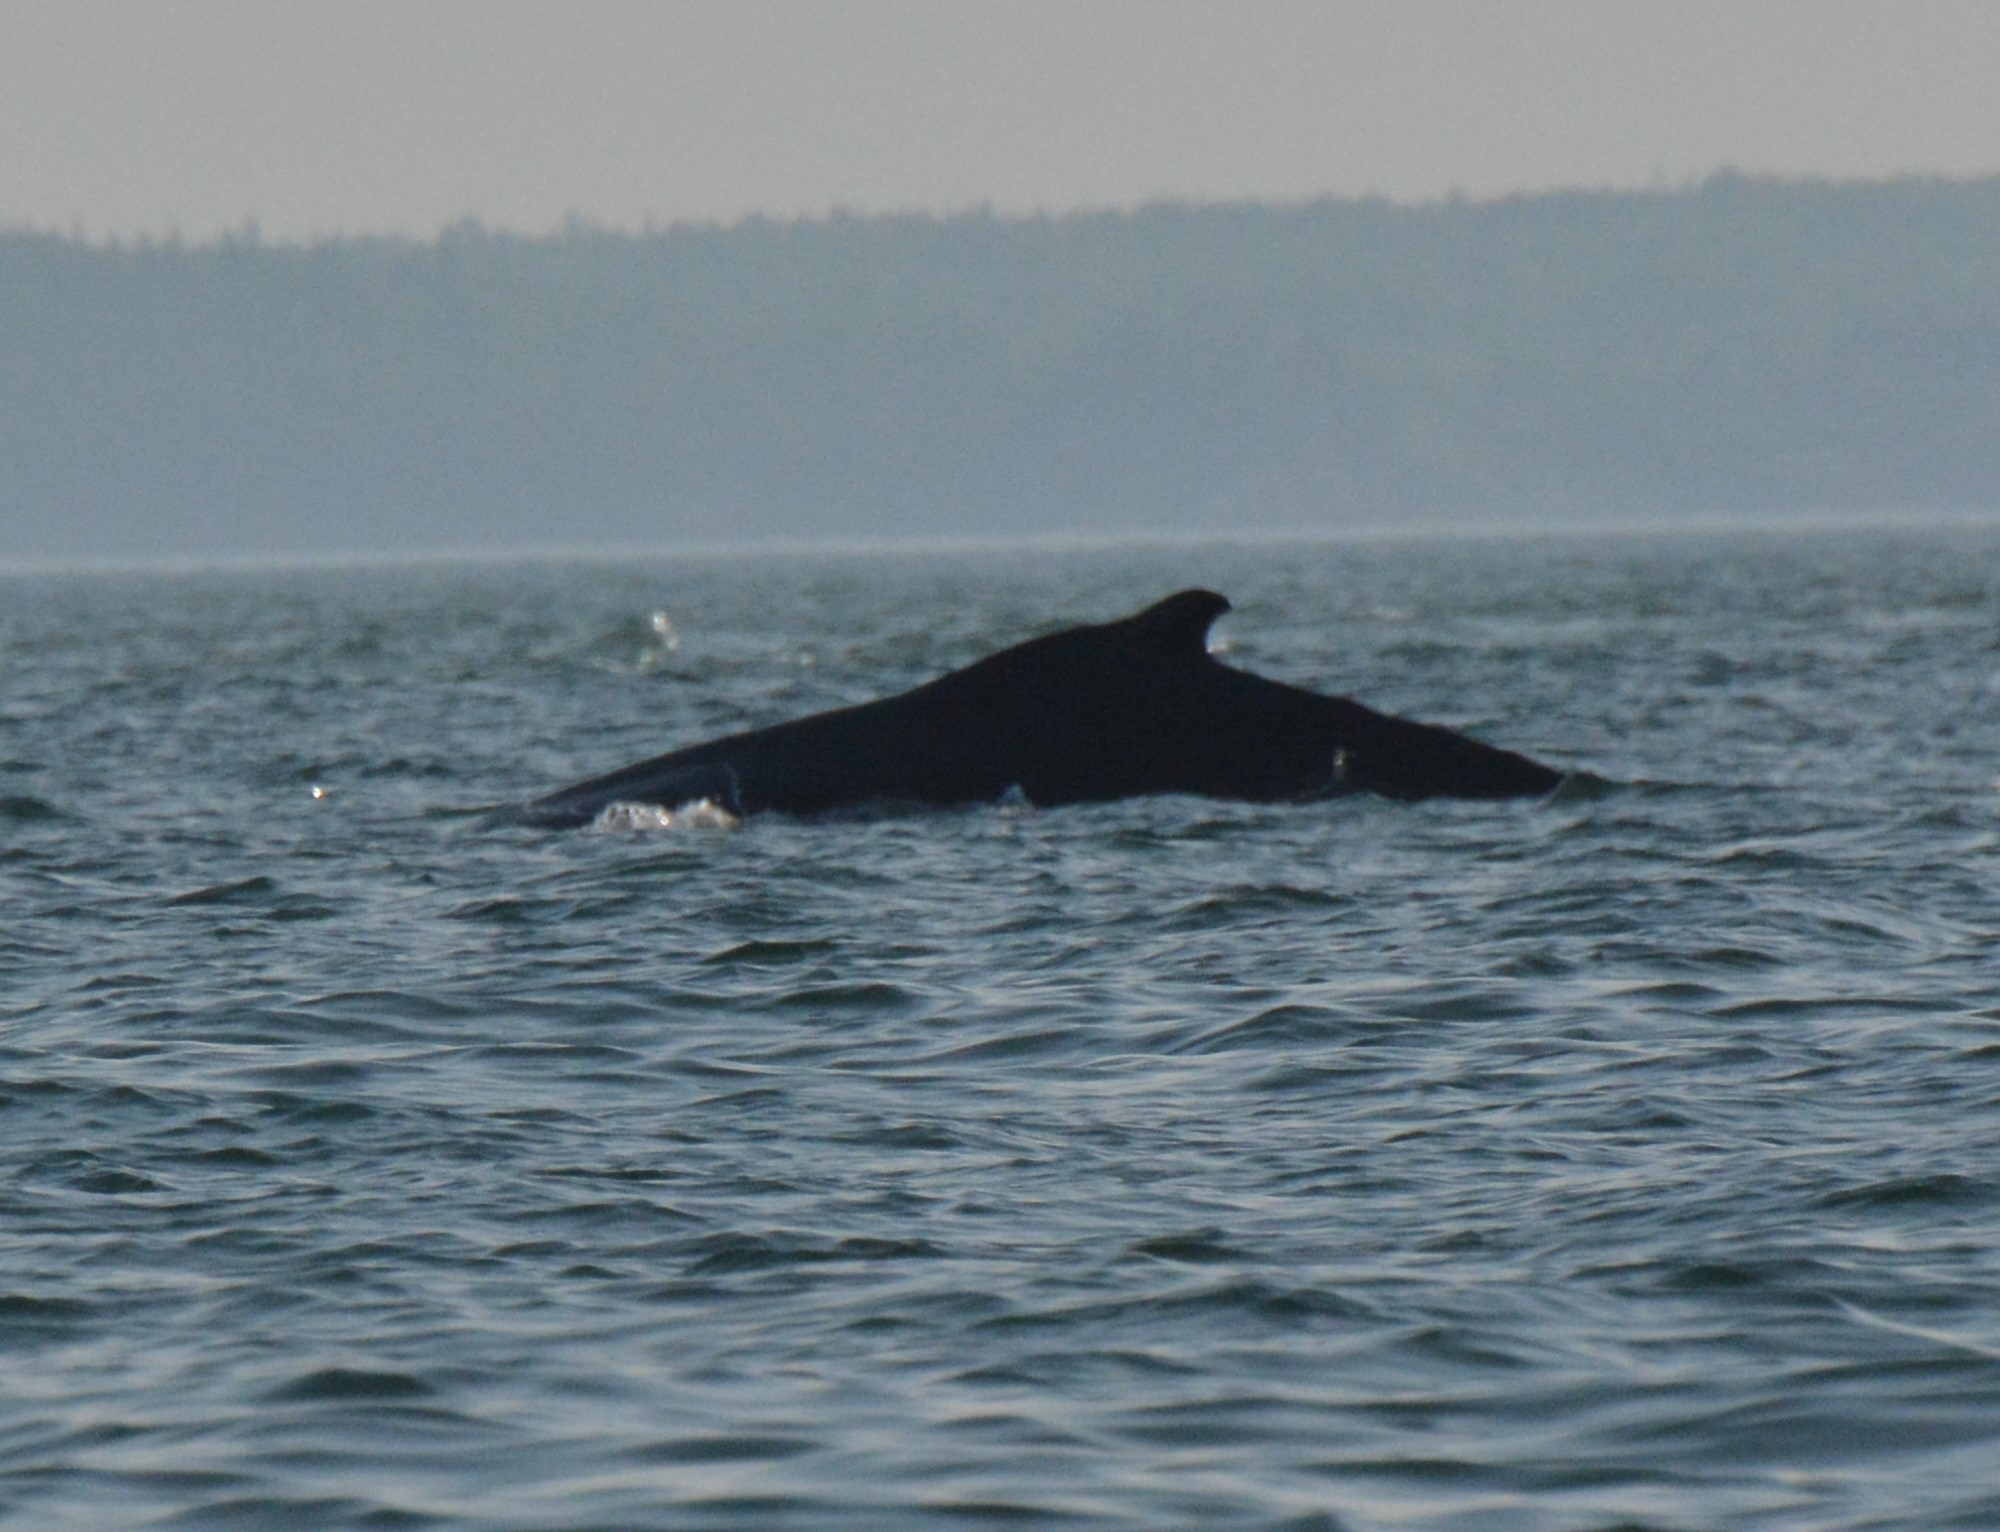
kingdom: Animalia
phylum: Chordata
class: Mammalia
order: Cetacea
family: Balaenopteridae
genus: Megaptera
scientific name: Megaptera novaeangliae
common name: Humpback whale
